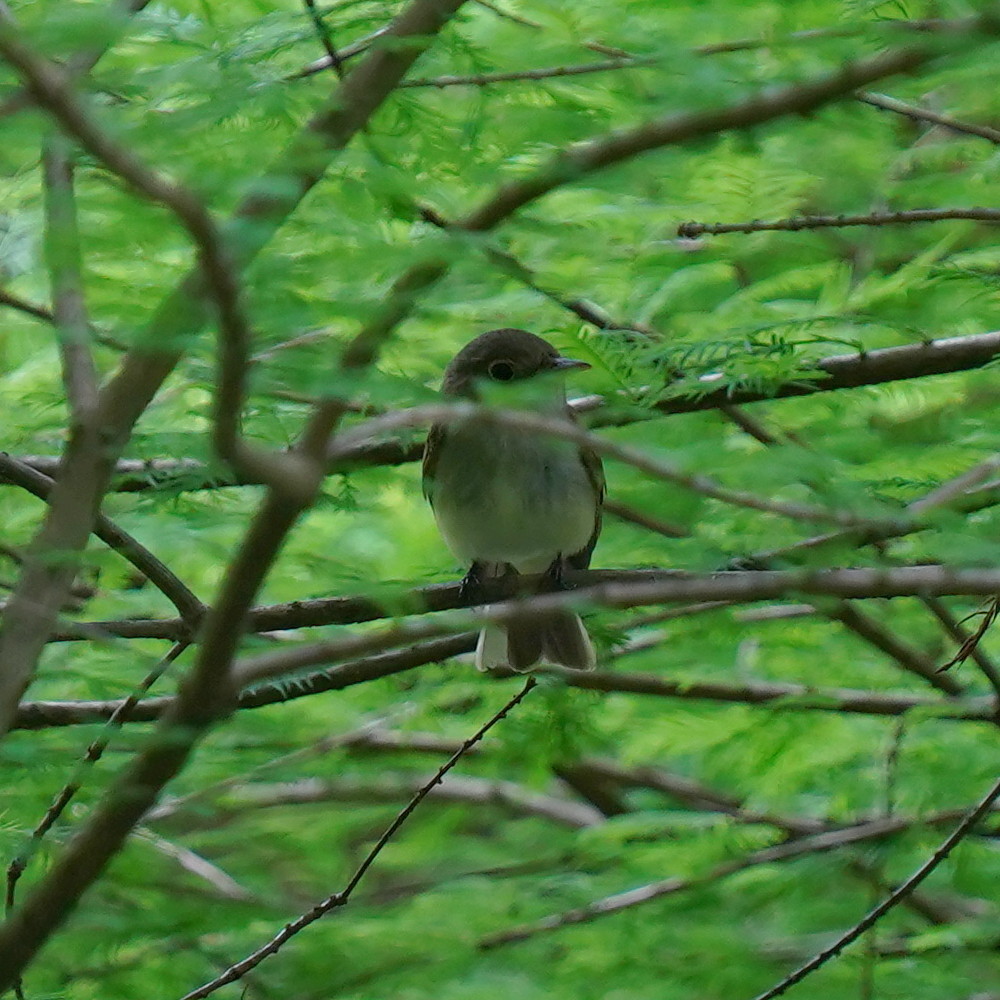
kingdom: Animalia
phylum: Chordata
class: Aves
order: Passeriformes
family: Tyrannidae
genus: Empidonax
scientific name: Empidonax virescens
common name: Acadian flycatcher
